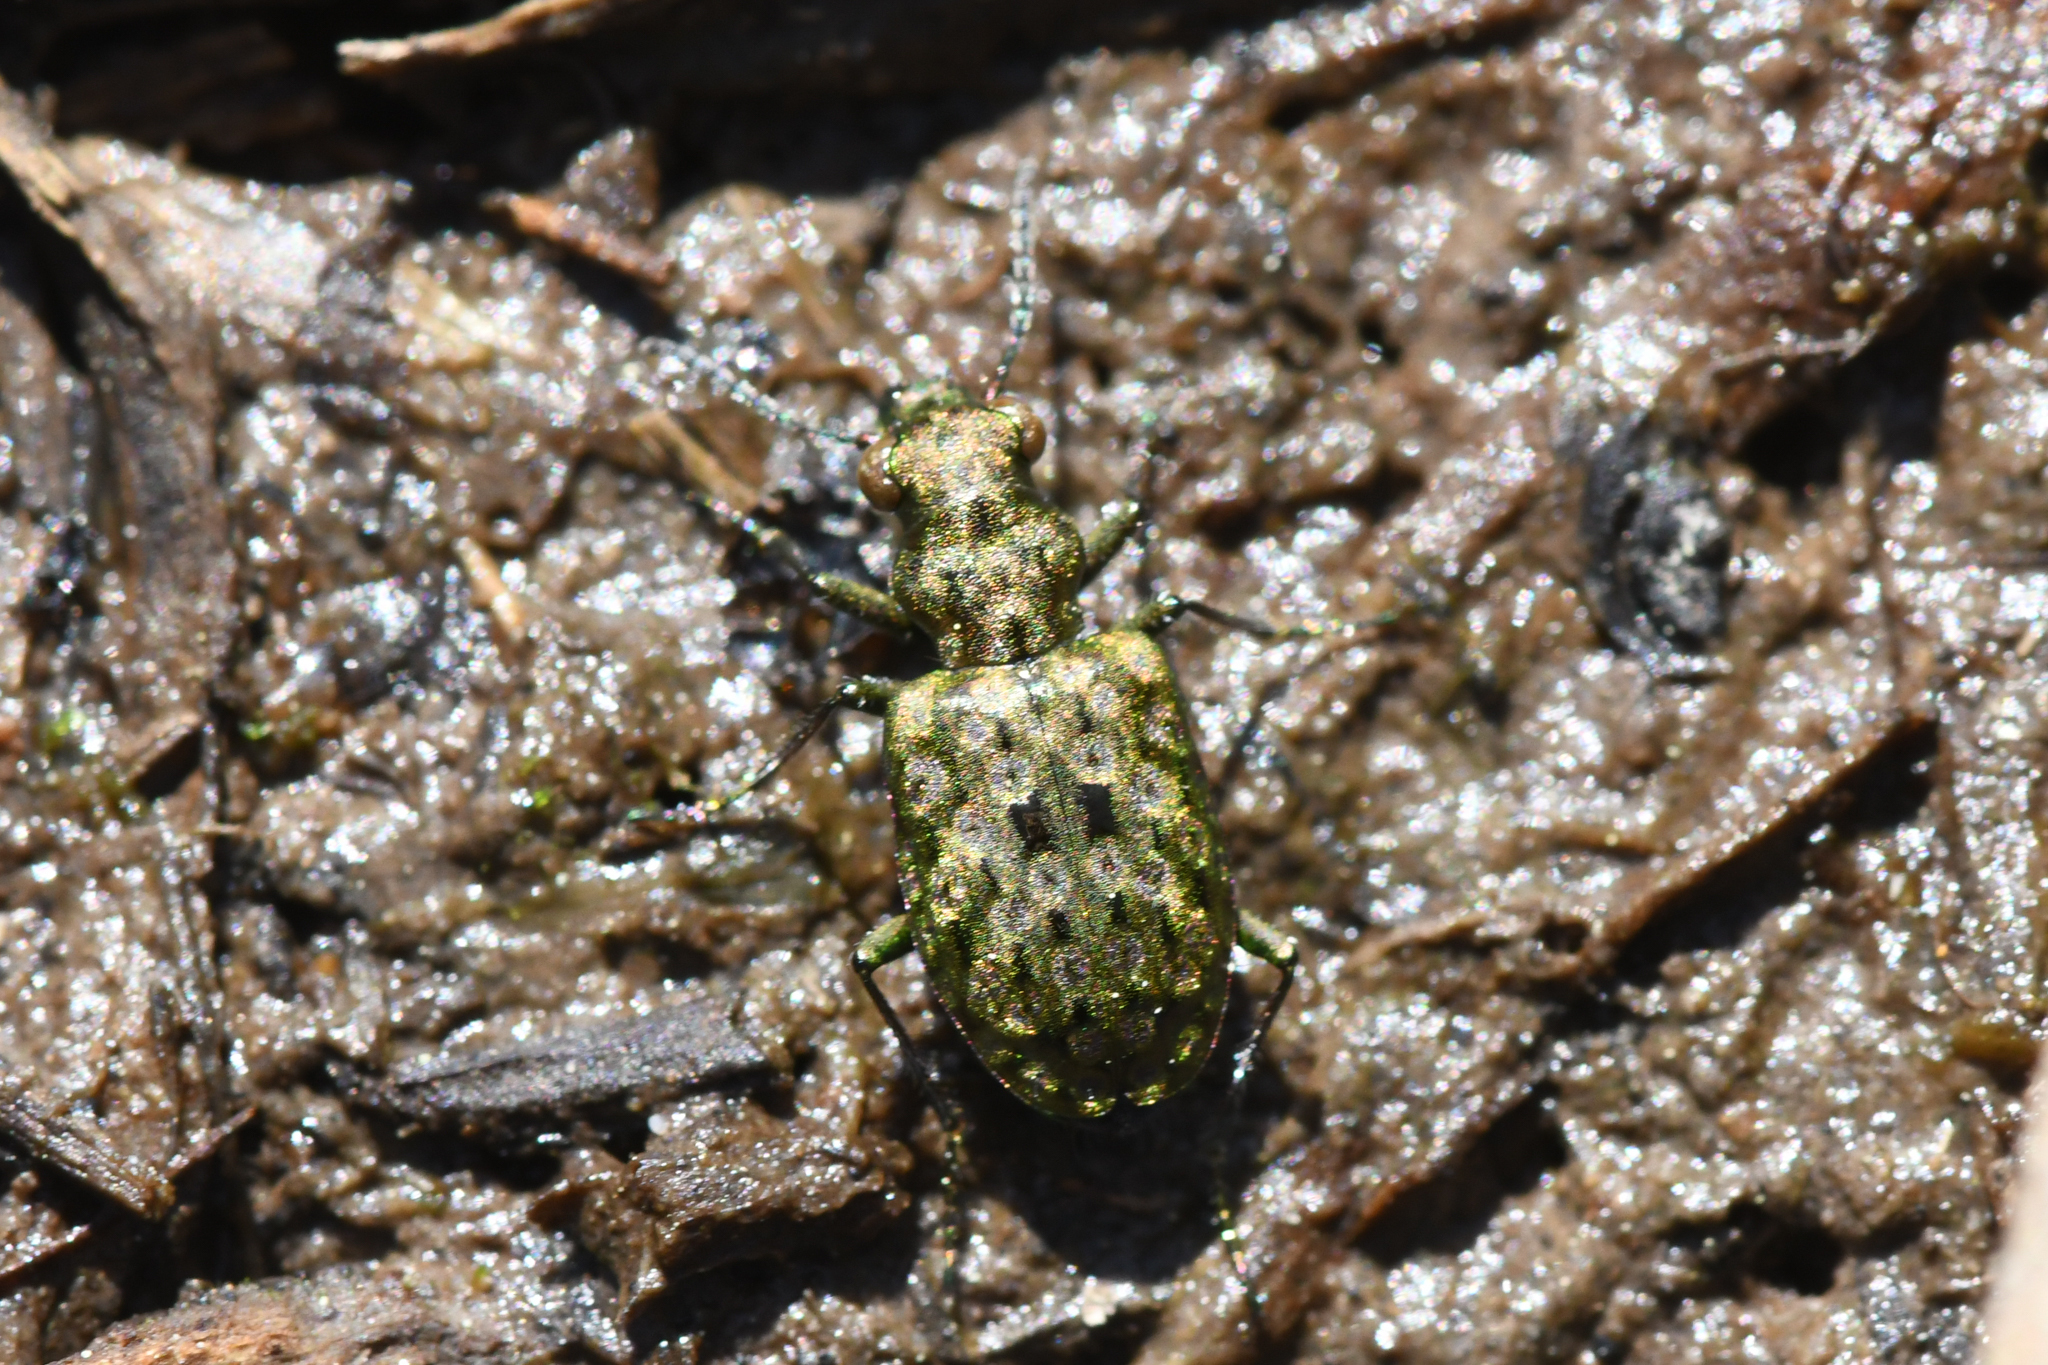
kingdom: Animalia
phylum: Arthropoda
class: Insecta
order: Coleoptera
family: Carabidae
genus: Elaphrus
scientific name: Elaphrus lecontei
